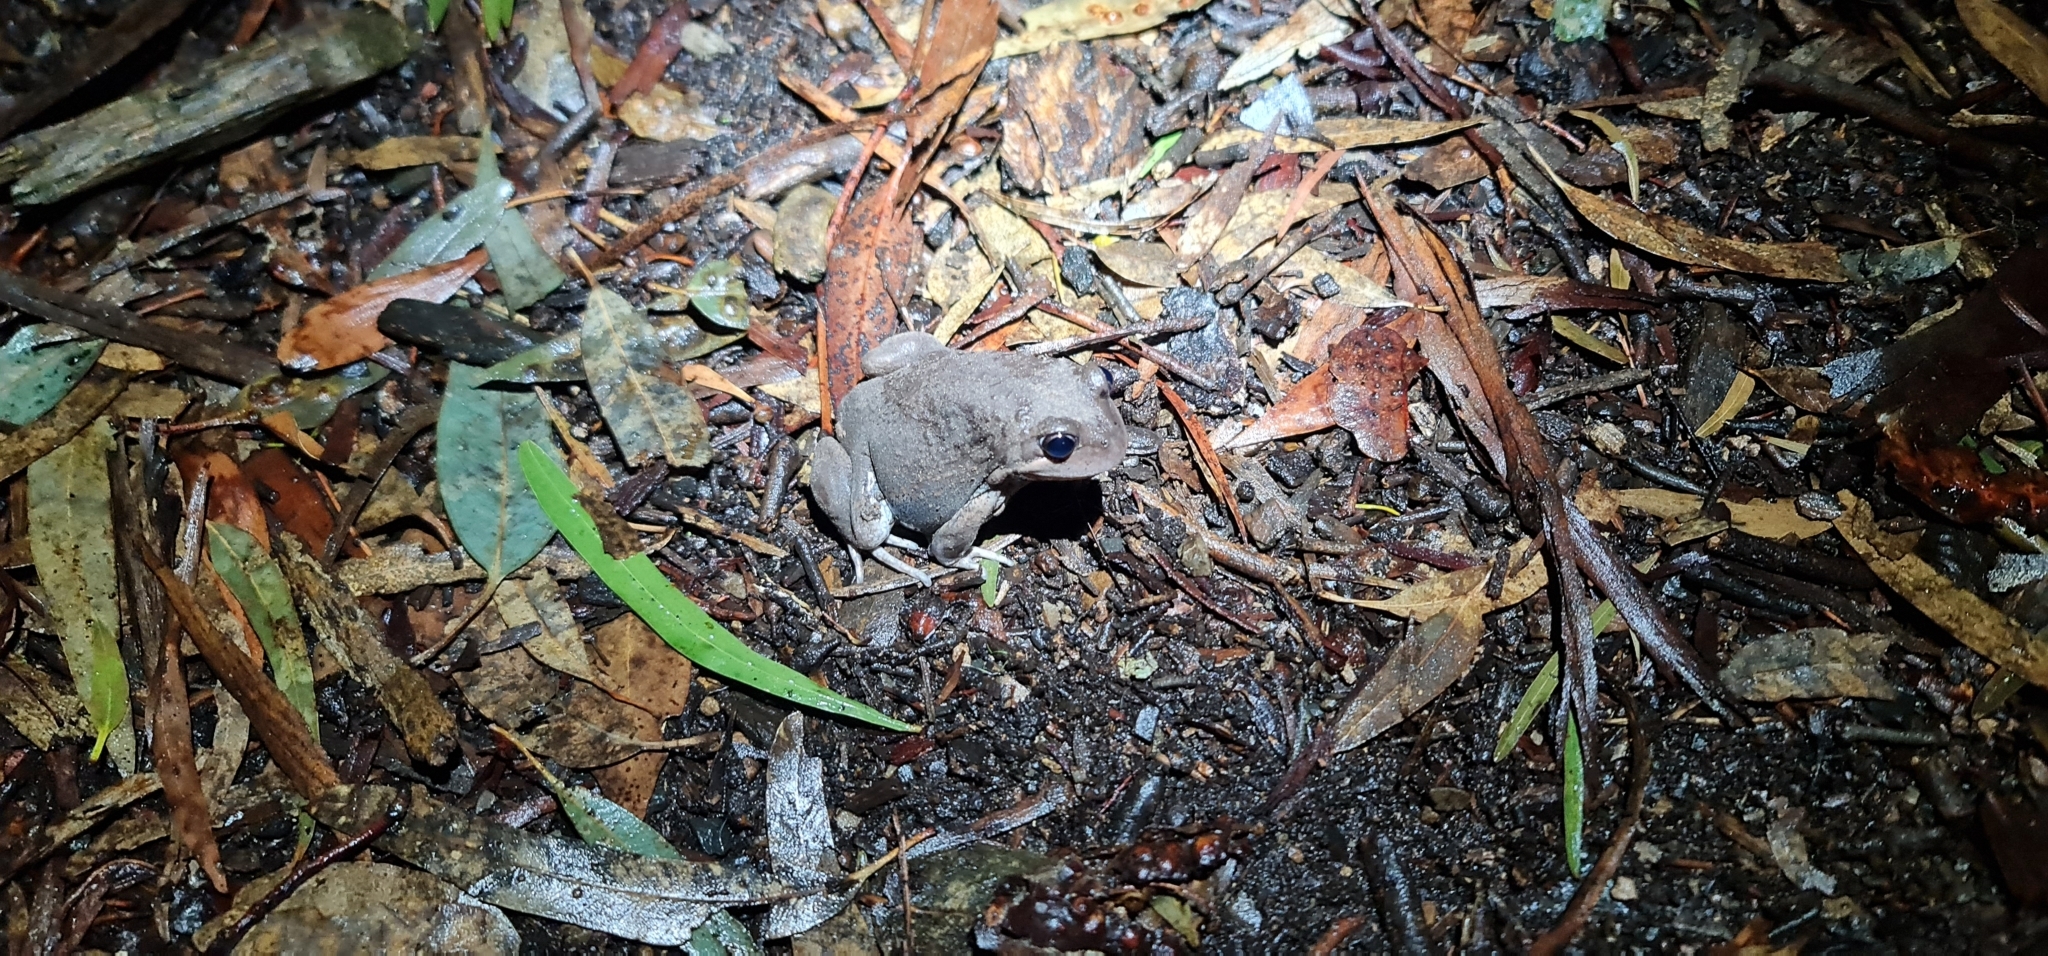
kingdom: Animalia
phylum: Chordata
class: Amphibia
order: Anura
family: Limnodynastidae
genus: Limnodynastes
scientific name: Limnodynastes dumerilii
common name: Banjo frog
